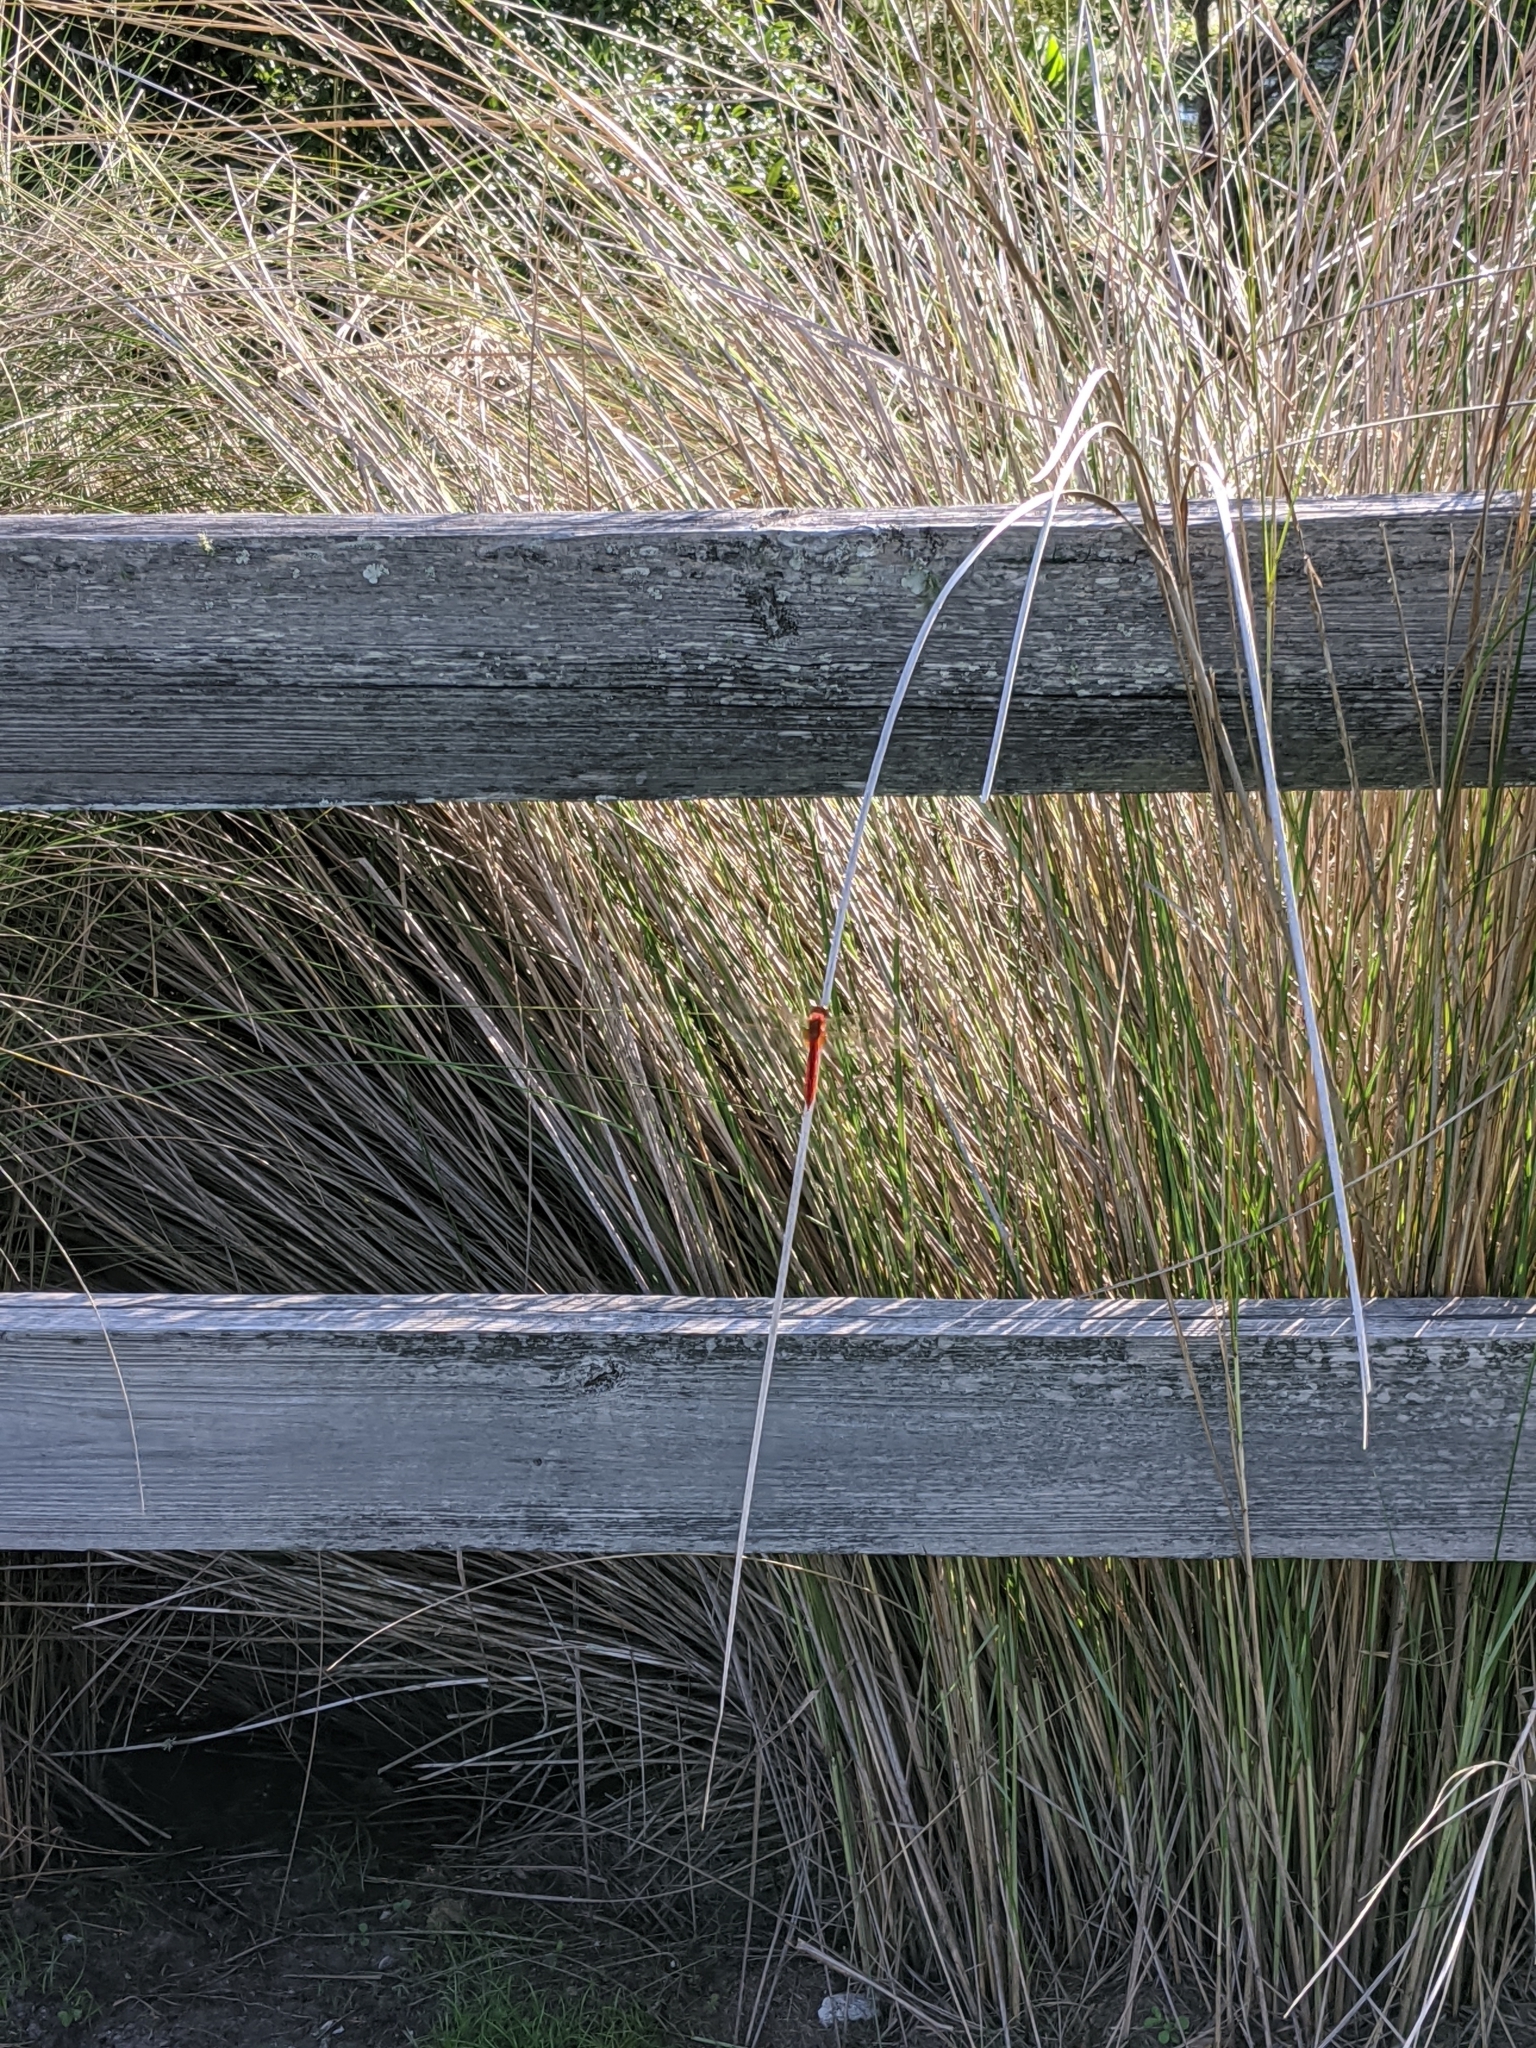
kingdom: Animalia
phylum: Arthropoda
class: Insecta
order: Odonata
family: Libellulidae
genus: Crocothemis
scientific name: Crocothemis servilia
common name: Scarlet skimmer
